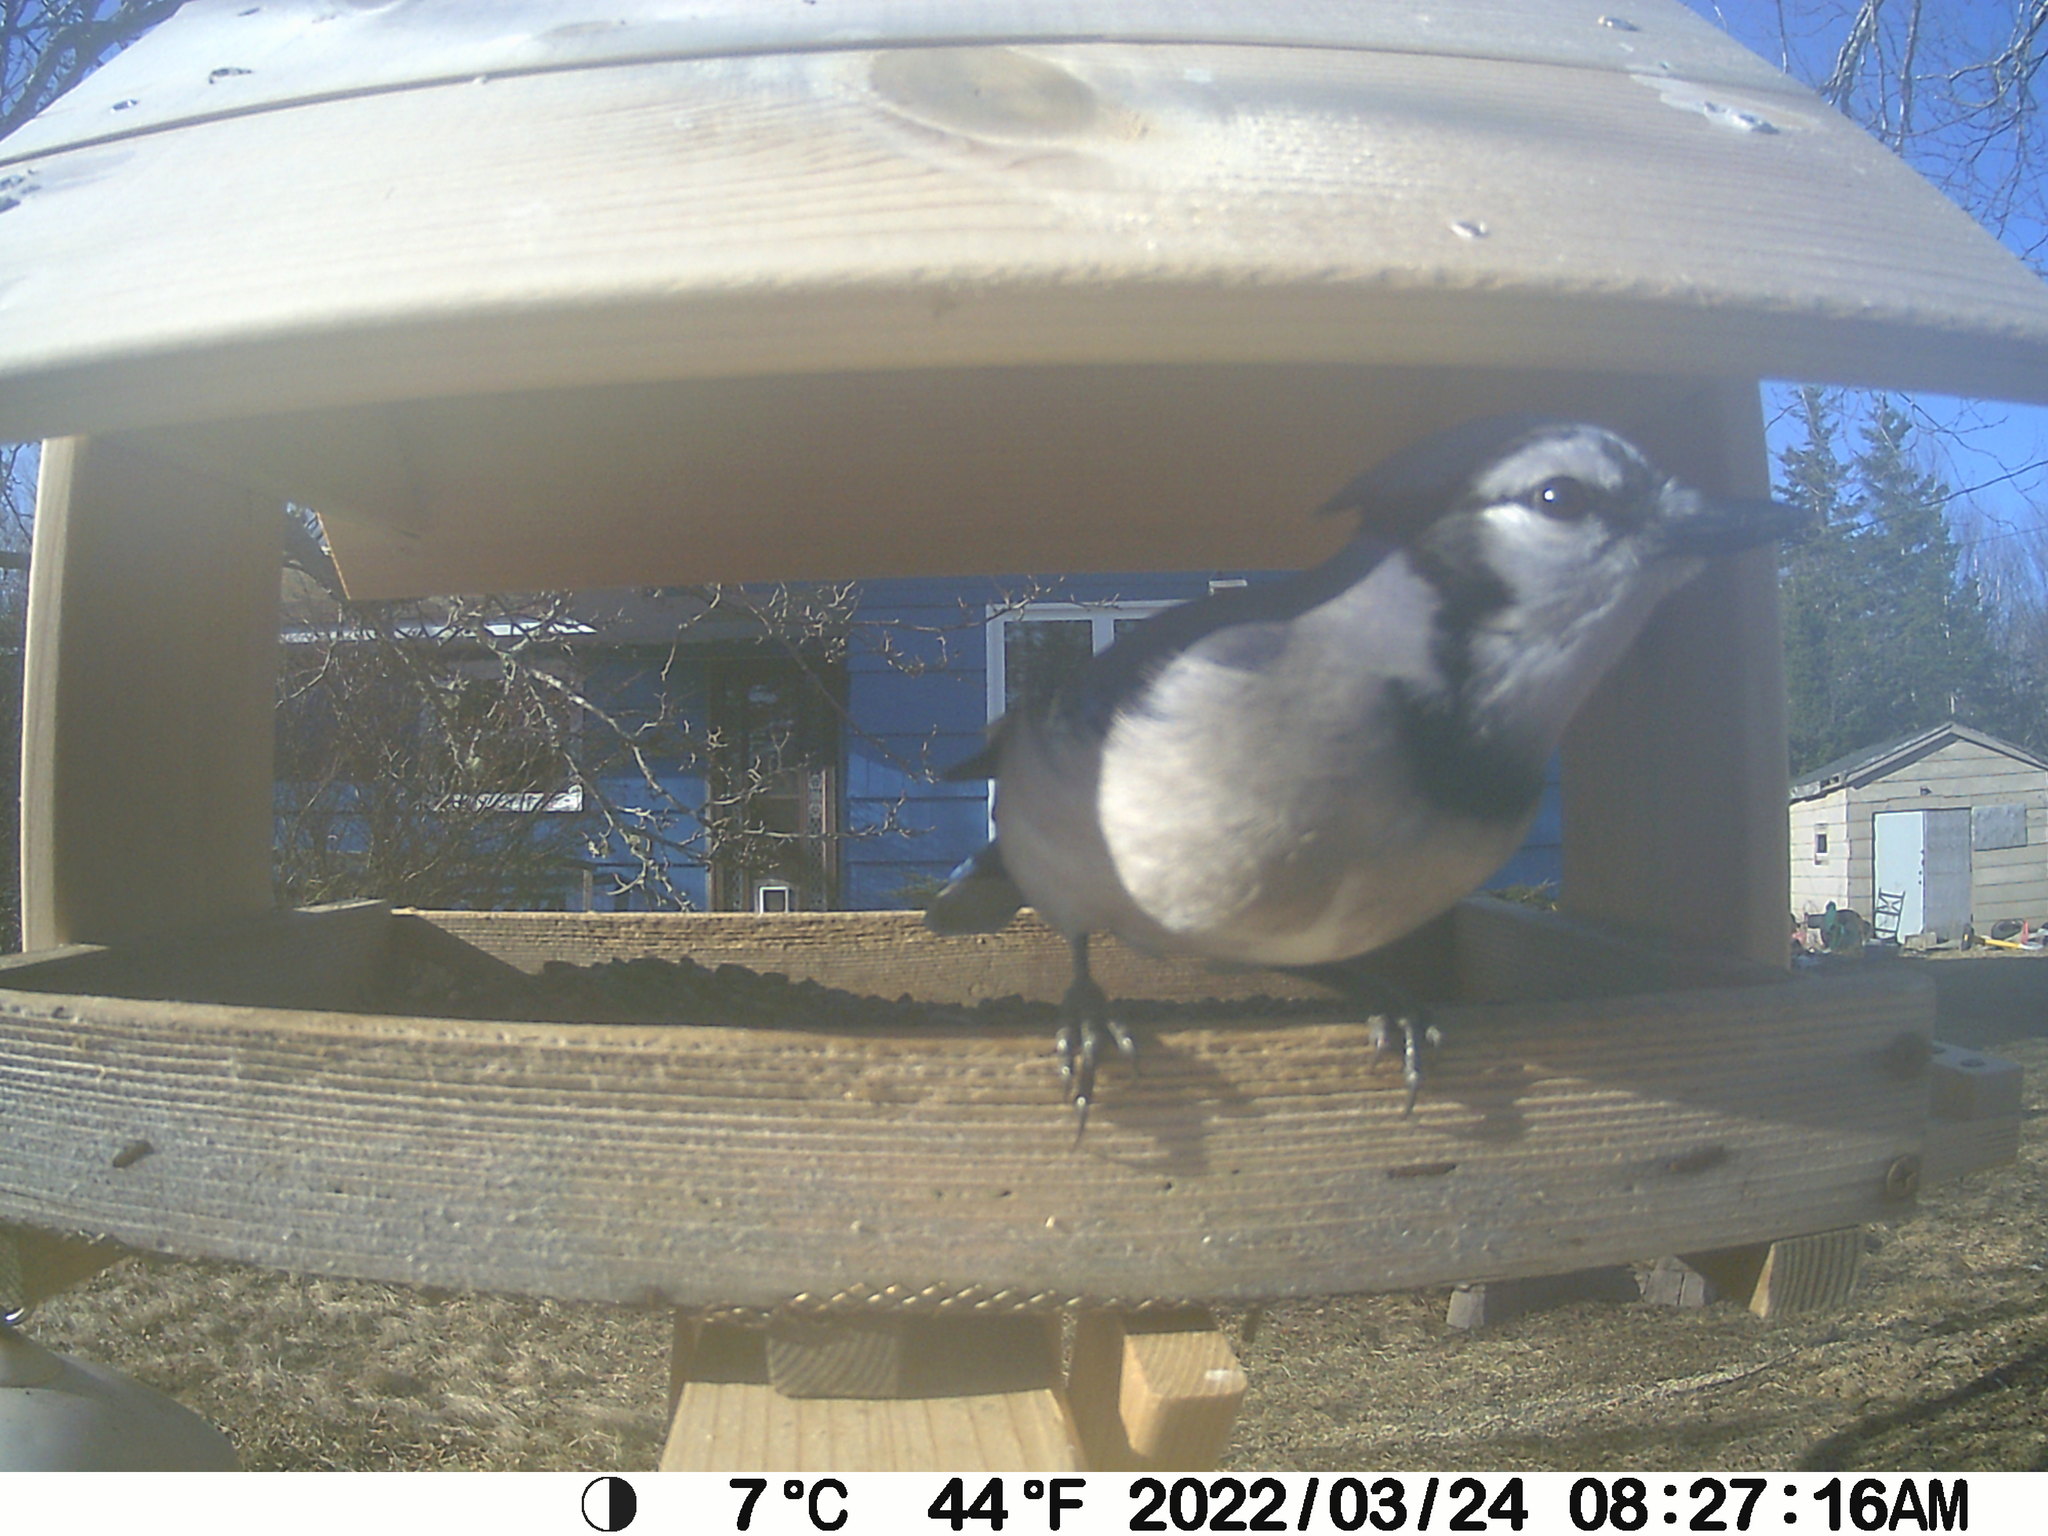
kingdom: Animalia
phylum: Chordata
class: Aves
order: Passeriformes
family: Corvidae
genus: Cyanocitta
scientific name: Cyanocitta cristata
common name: Blue jay
